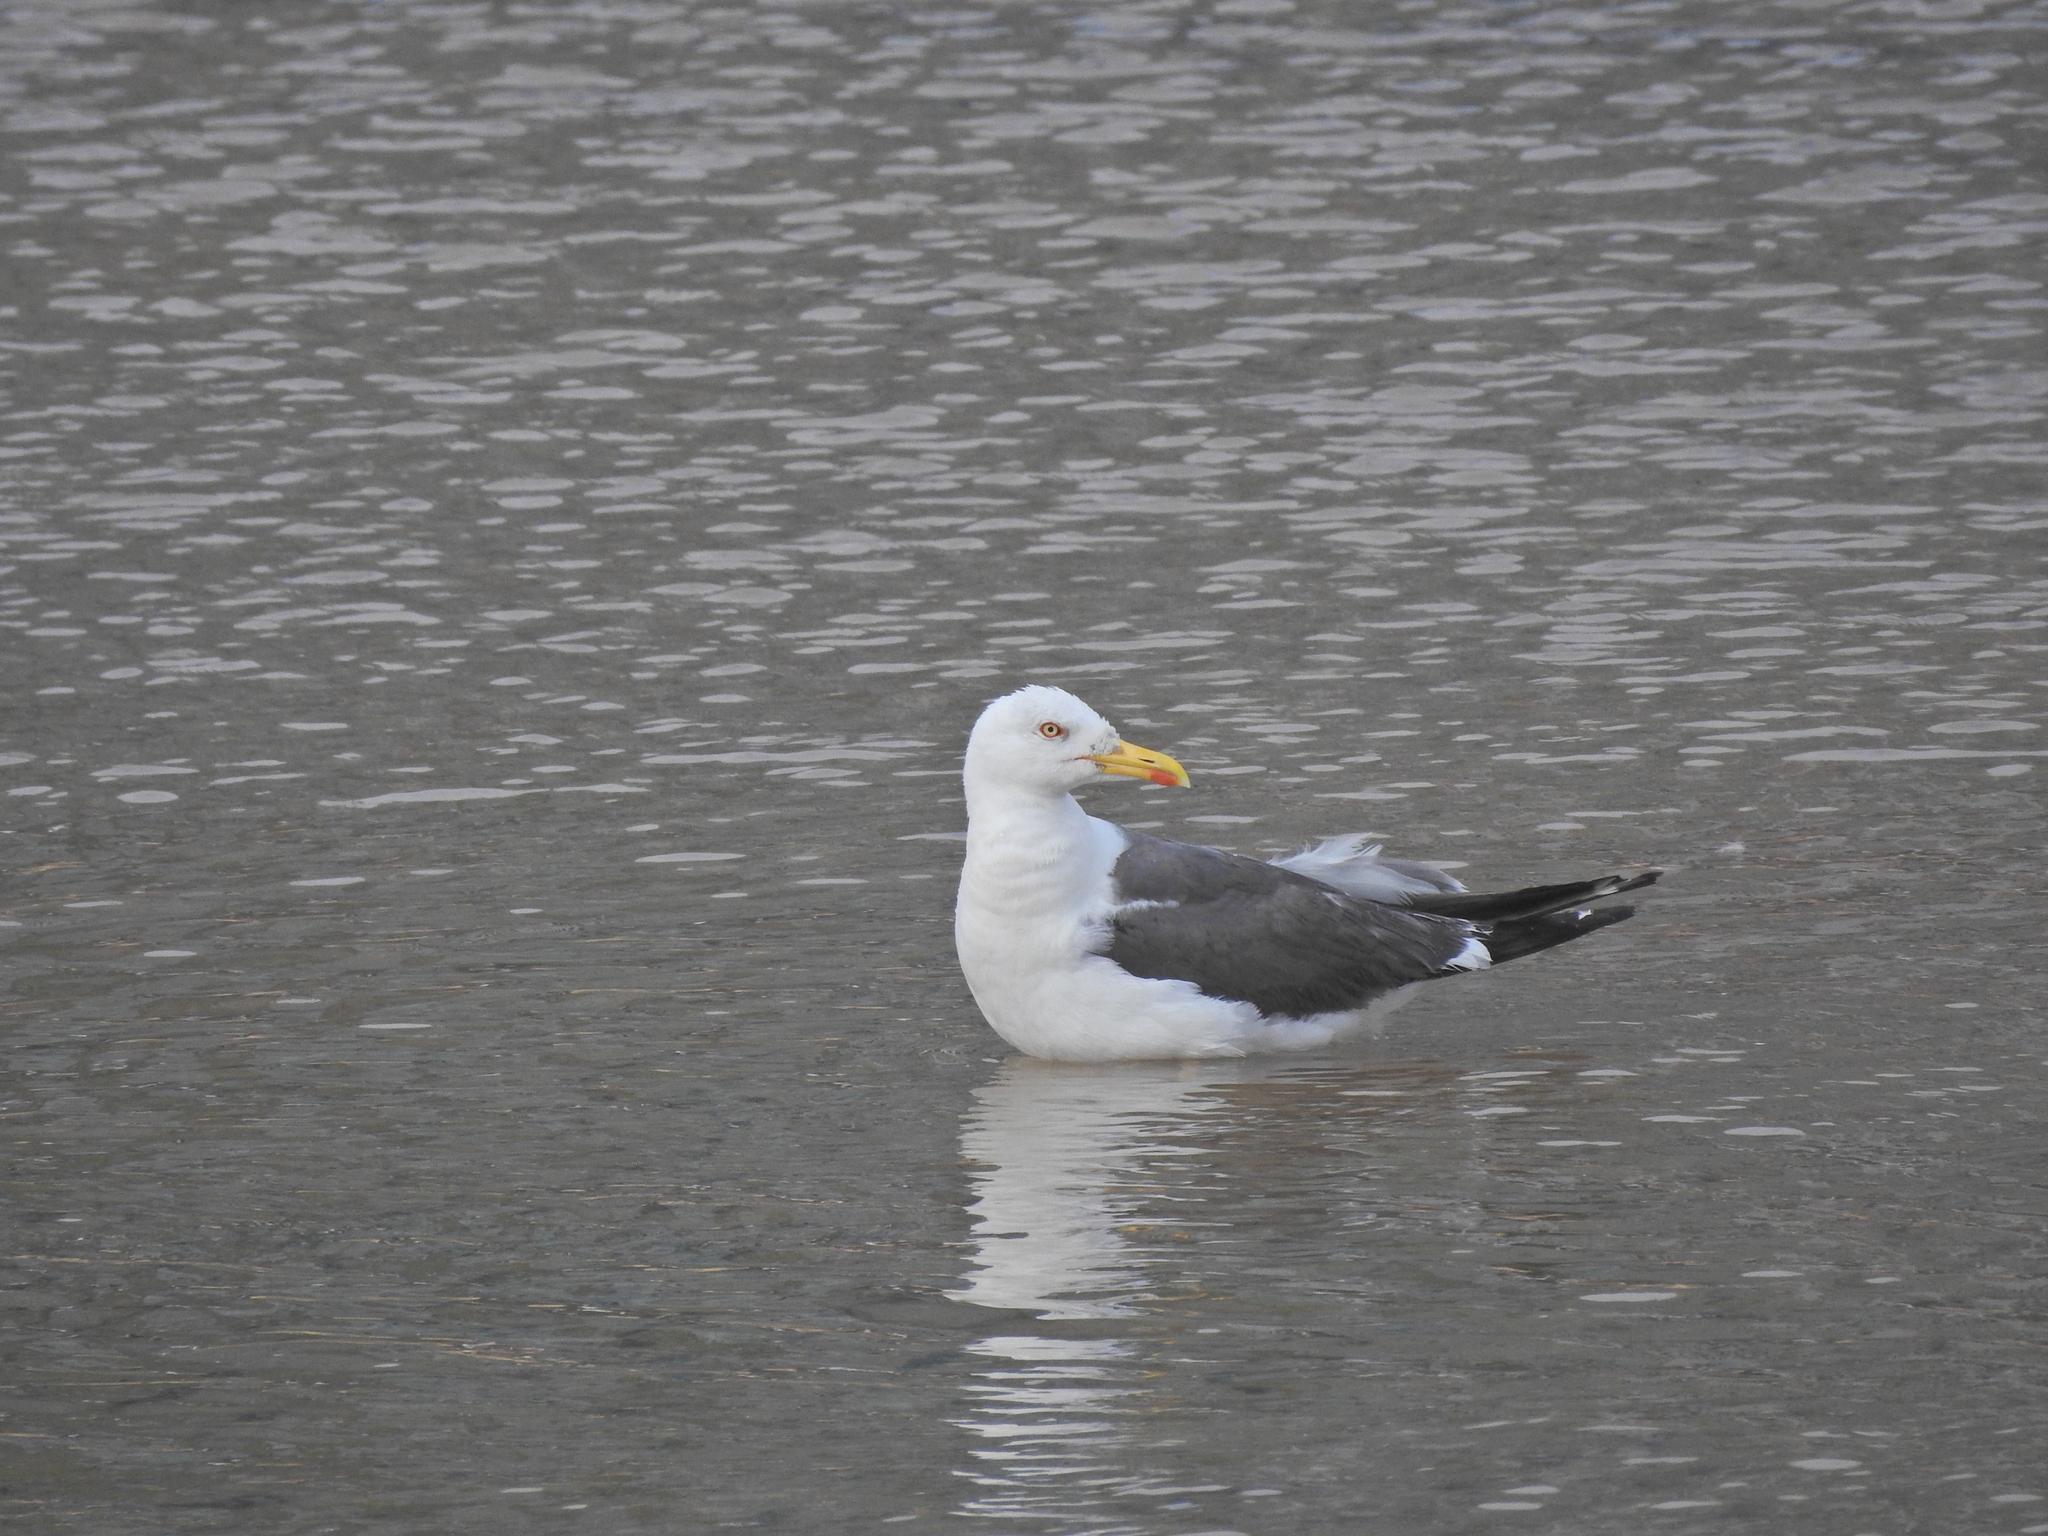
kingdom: Animalia
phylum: Chordata
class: Aves
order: Charadriiformes
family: Laridae
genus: Larus
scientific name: Larus fuscus
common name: Lesser black-backed gull
